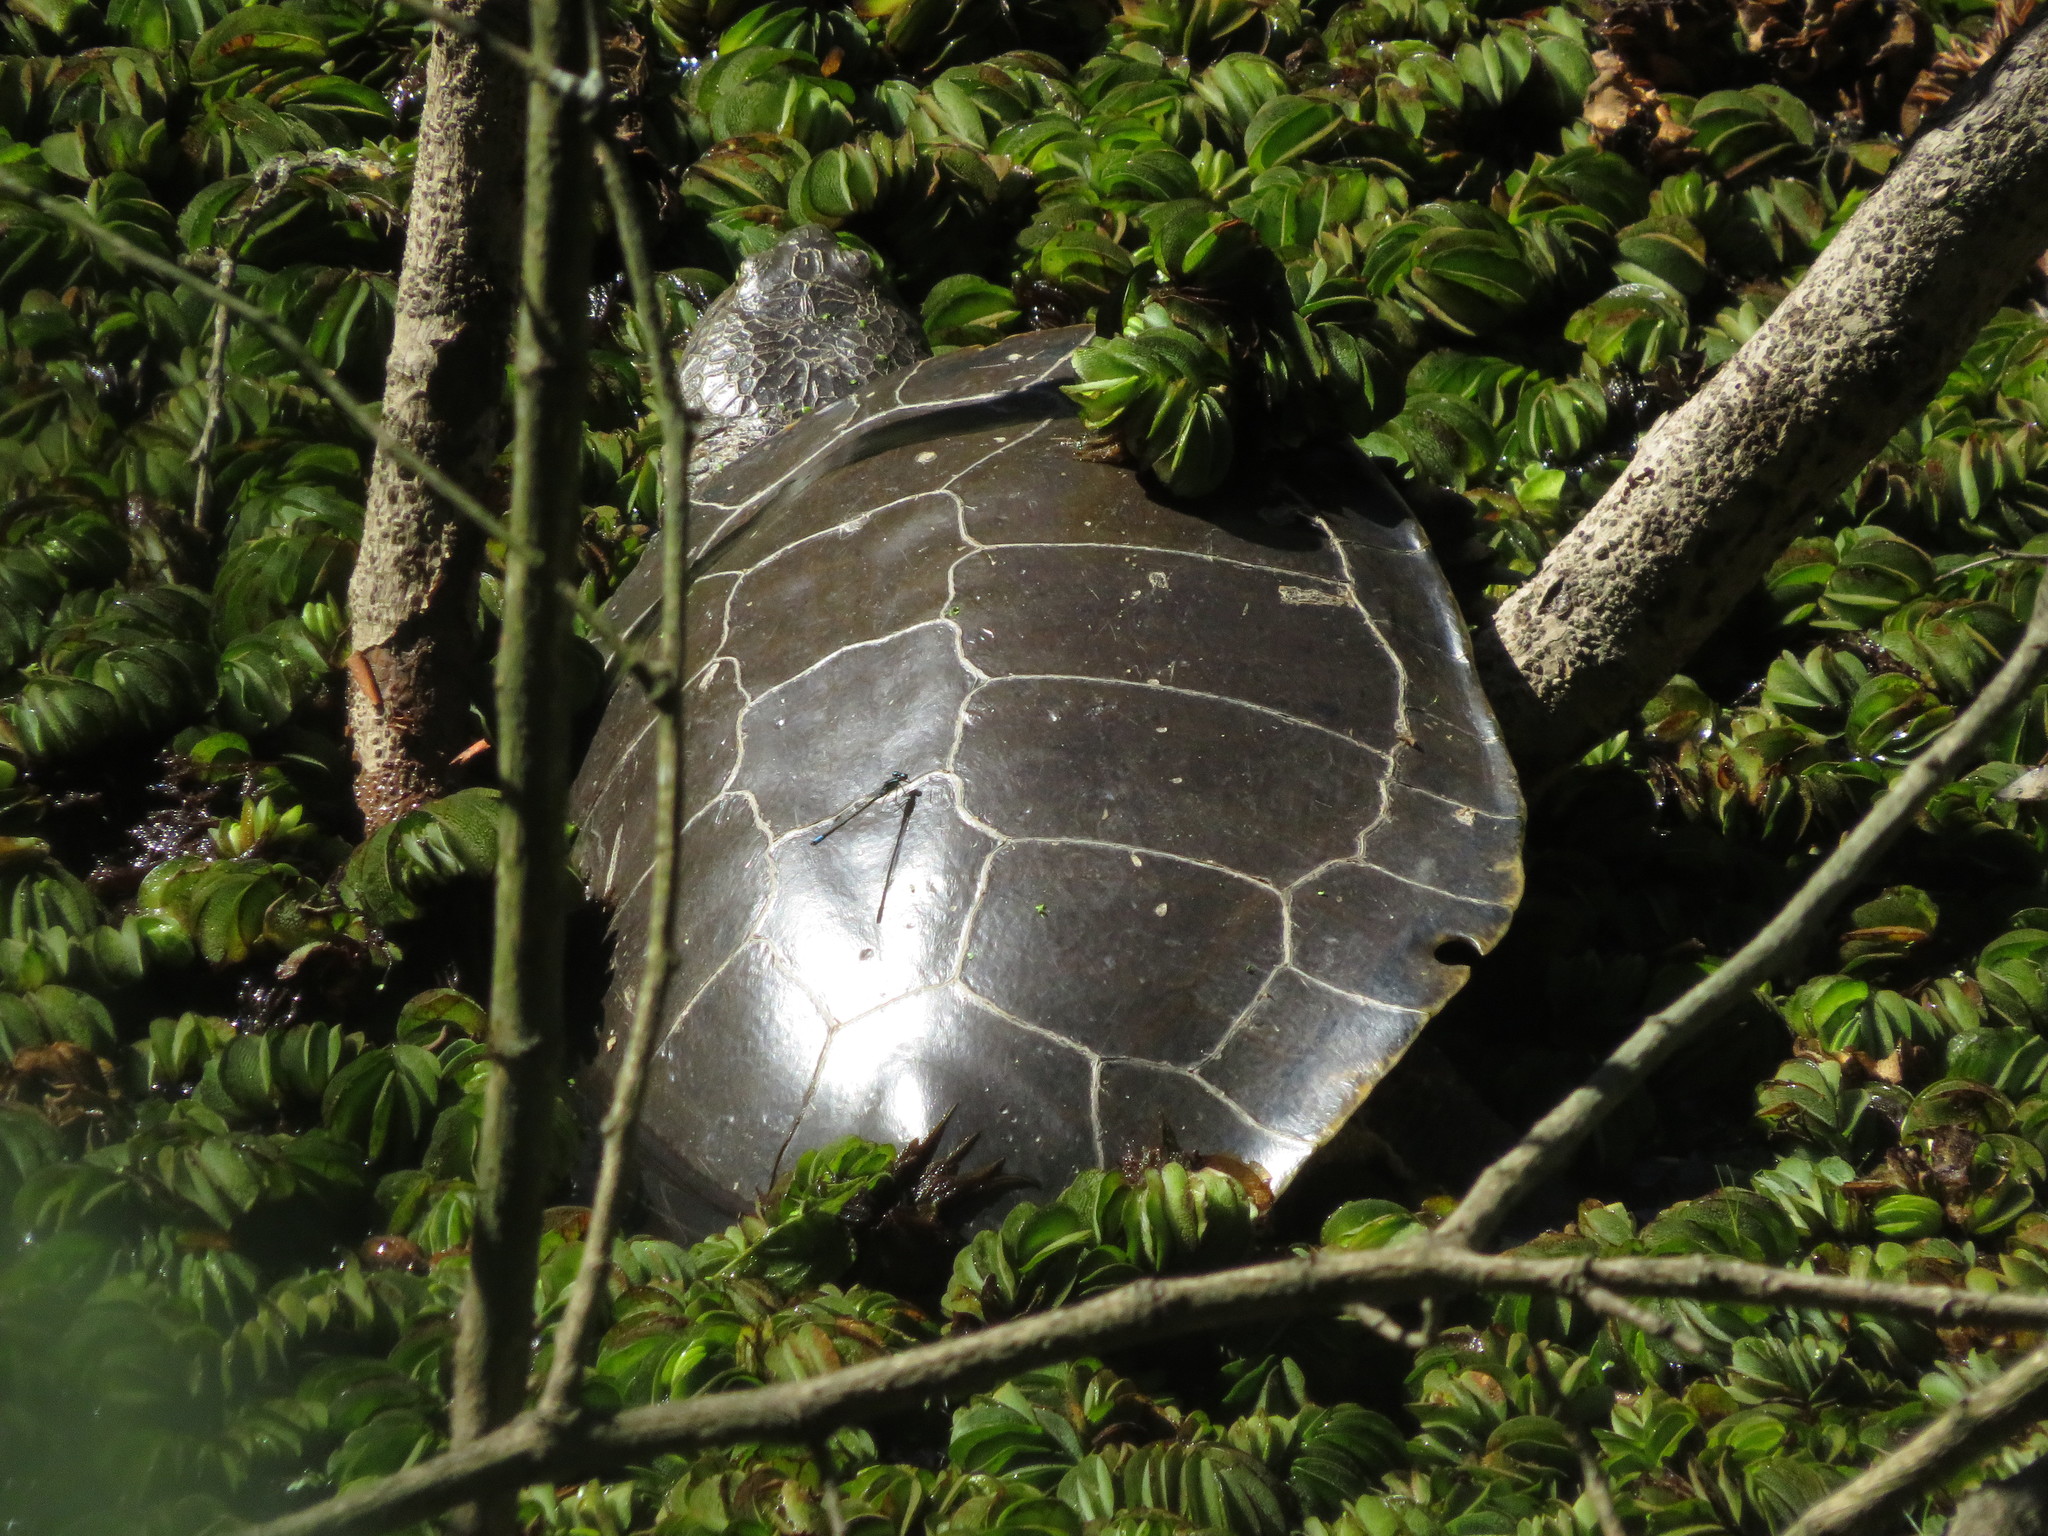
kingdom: Animalia
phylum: Chordata
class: Testudines
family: Chelidae
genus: Phrynops
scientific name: Phrynops hilarii
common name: Side-necked turtle of saint hillaire
